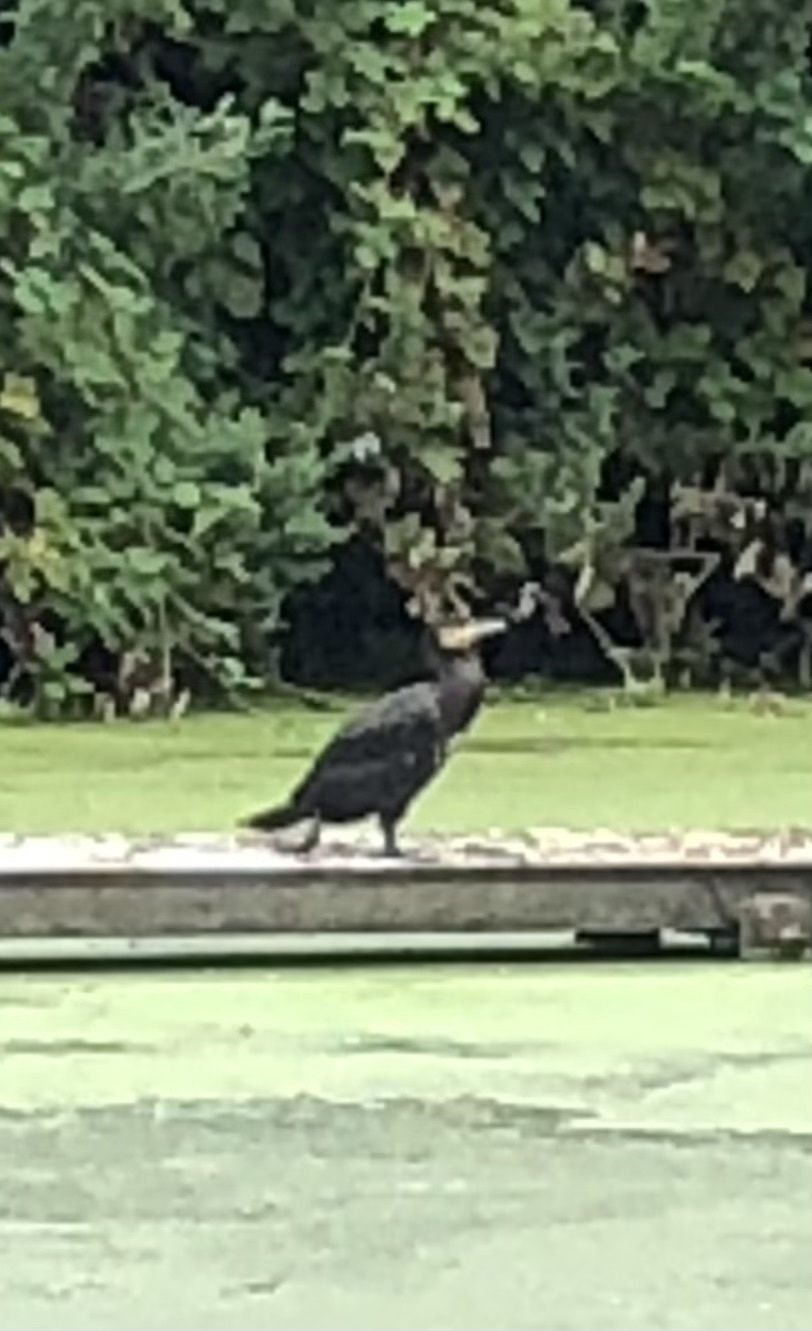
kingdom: Animalia
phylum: Chordata
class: Aves
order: Suliformes
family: Phalacrocoracidae
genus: Phalacrocorax
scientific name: Phalacrocorax carbo
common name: Great cormorant
